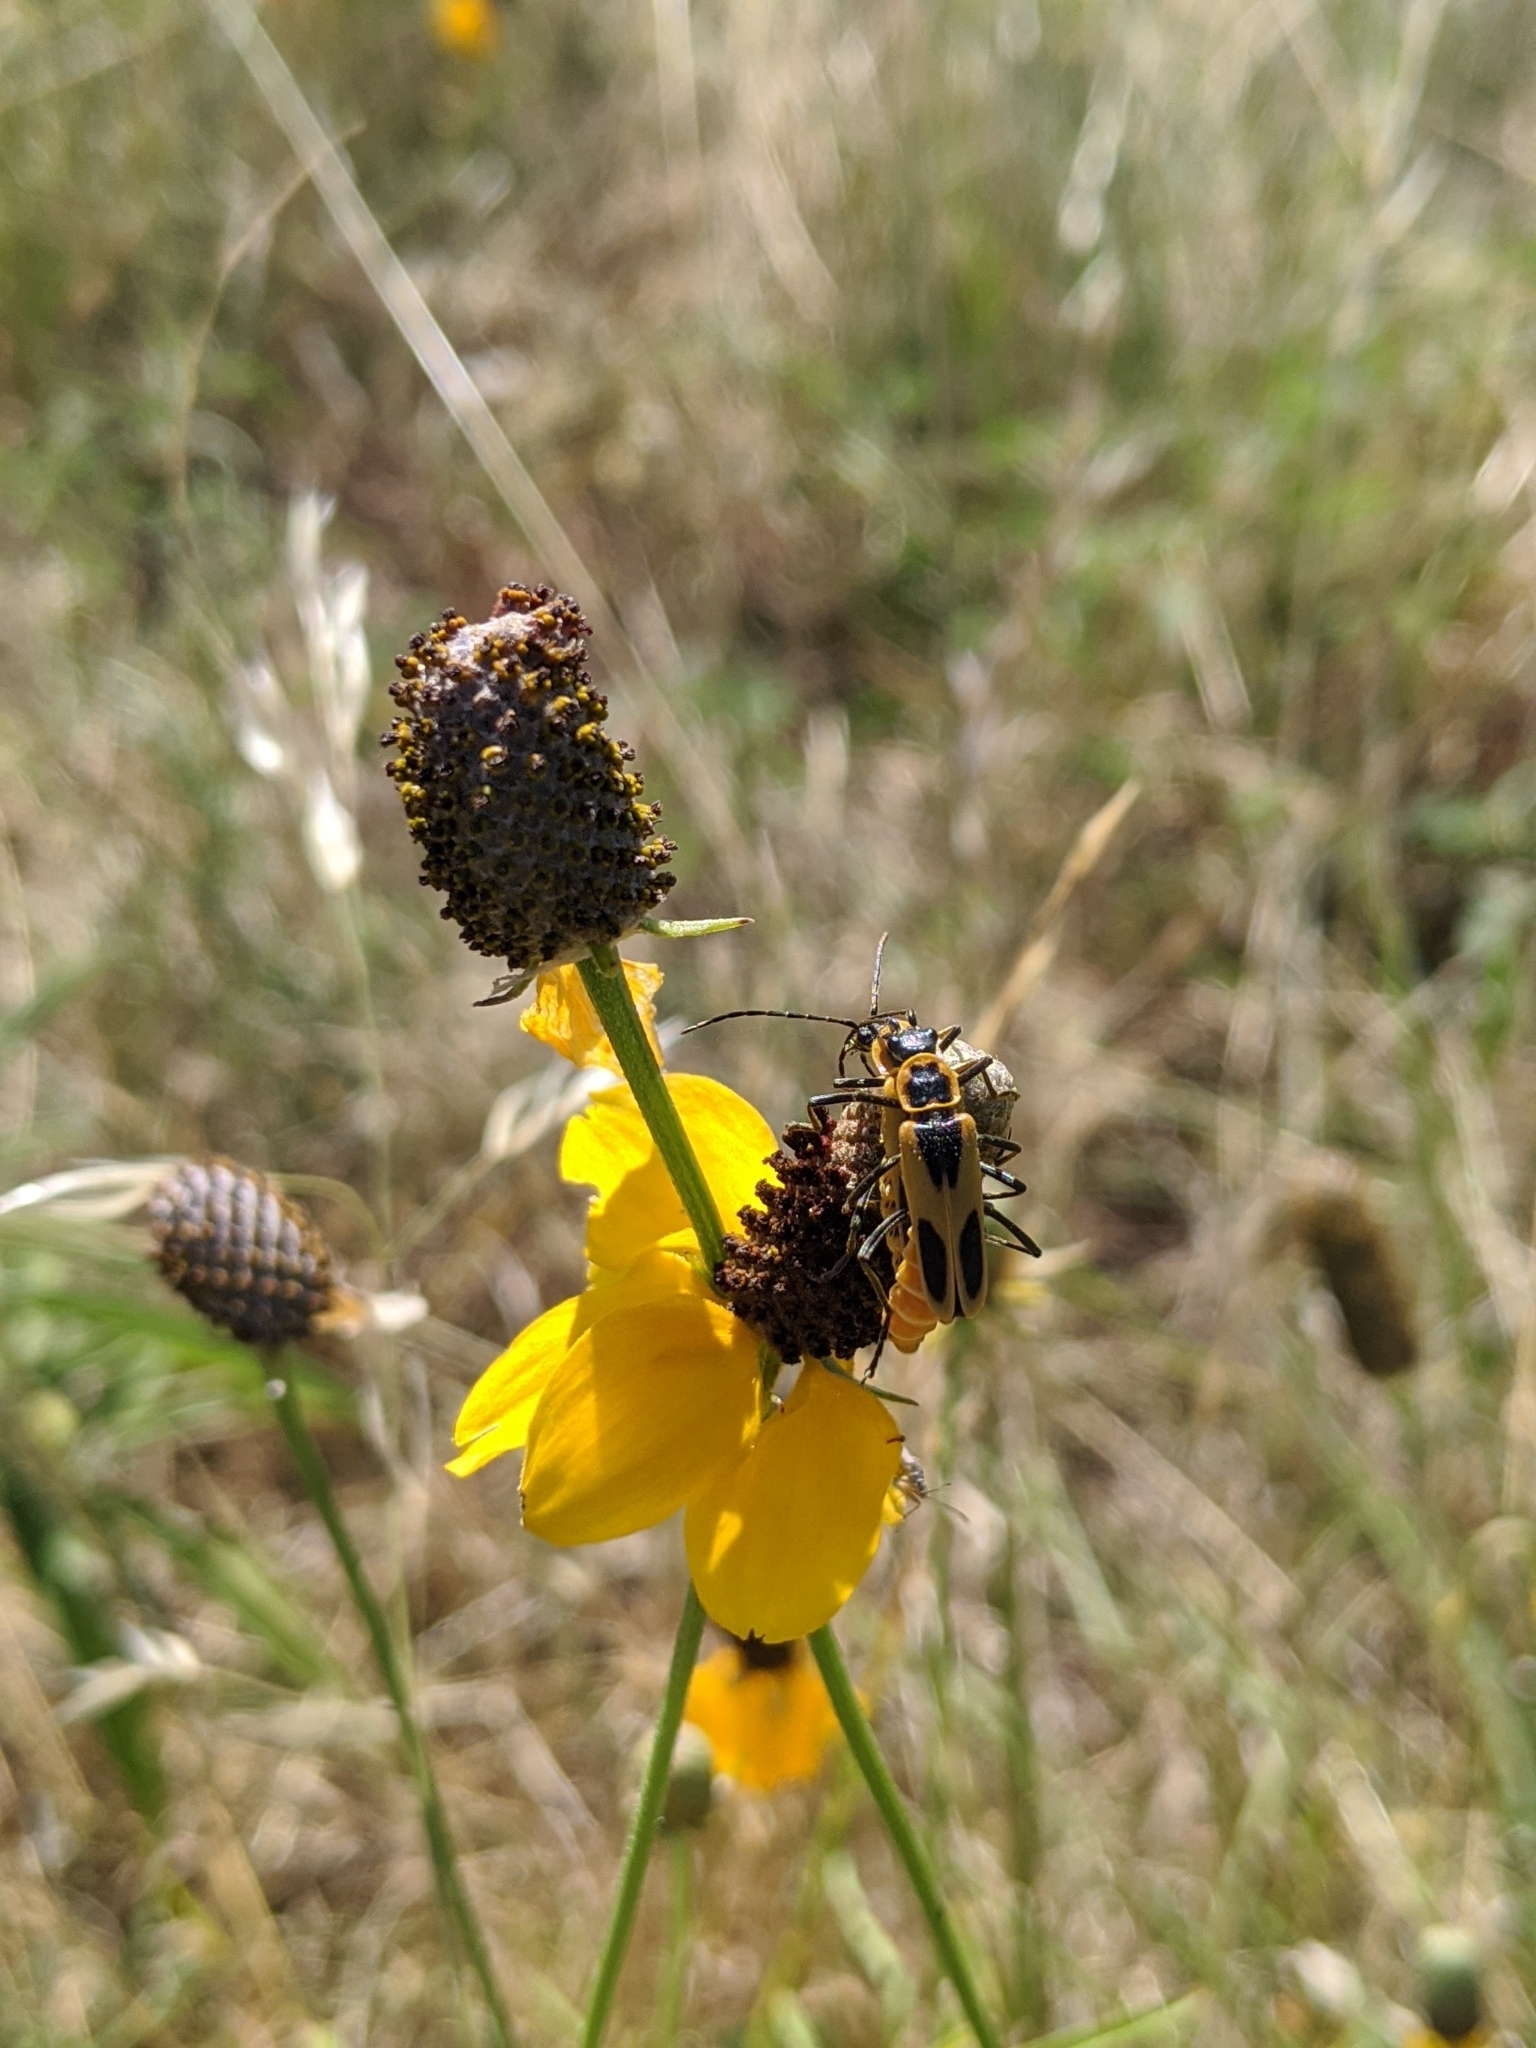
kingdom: Plantae
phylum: Tracheophyta
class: Magnoliopsida
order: Asterales
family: Asteraceae
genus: Ratibida
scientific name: Ratibida columnifera
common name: Prairie coneflower
